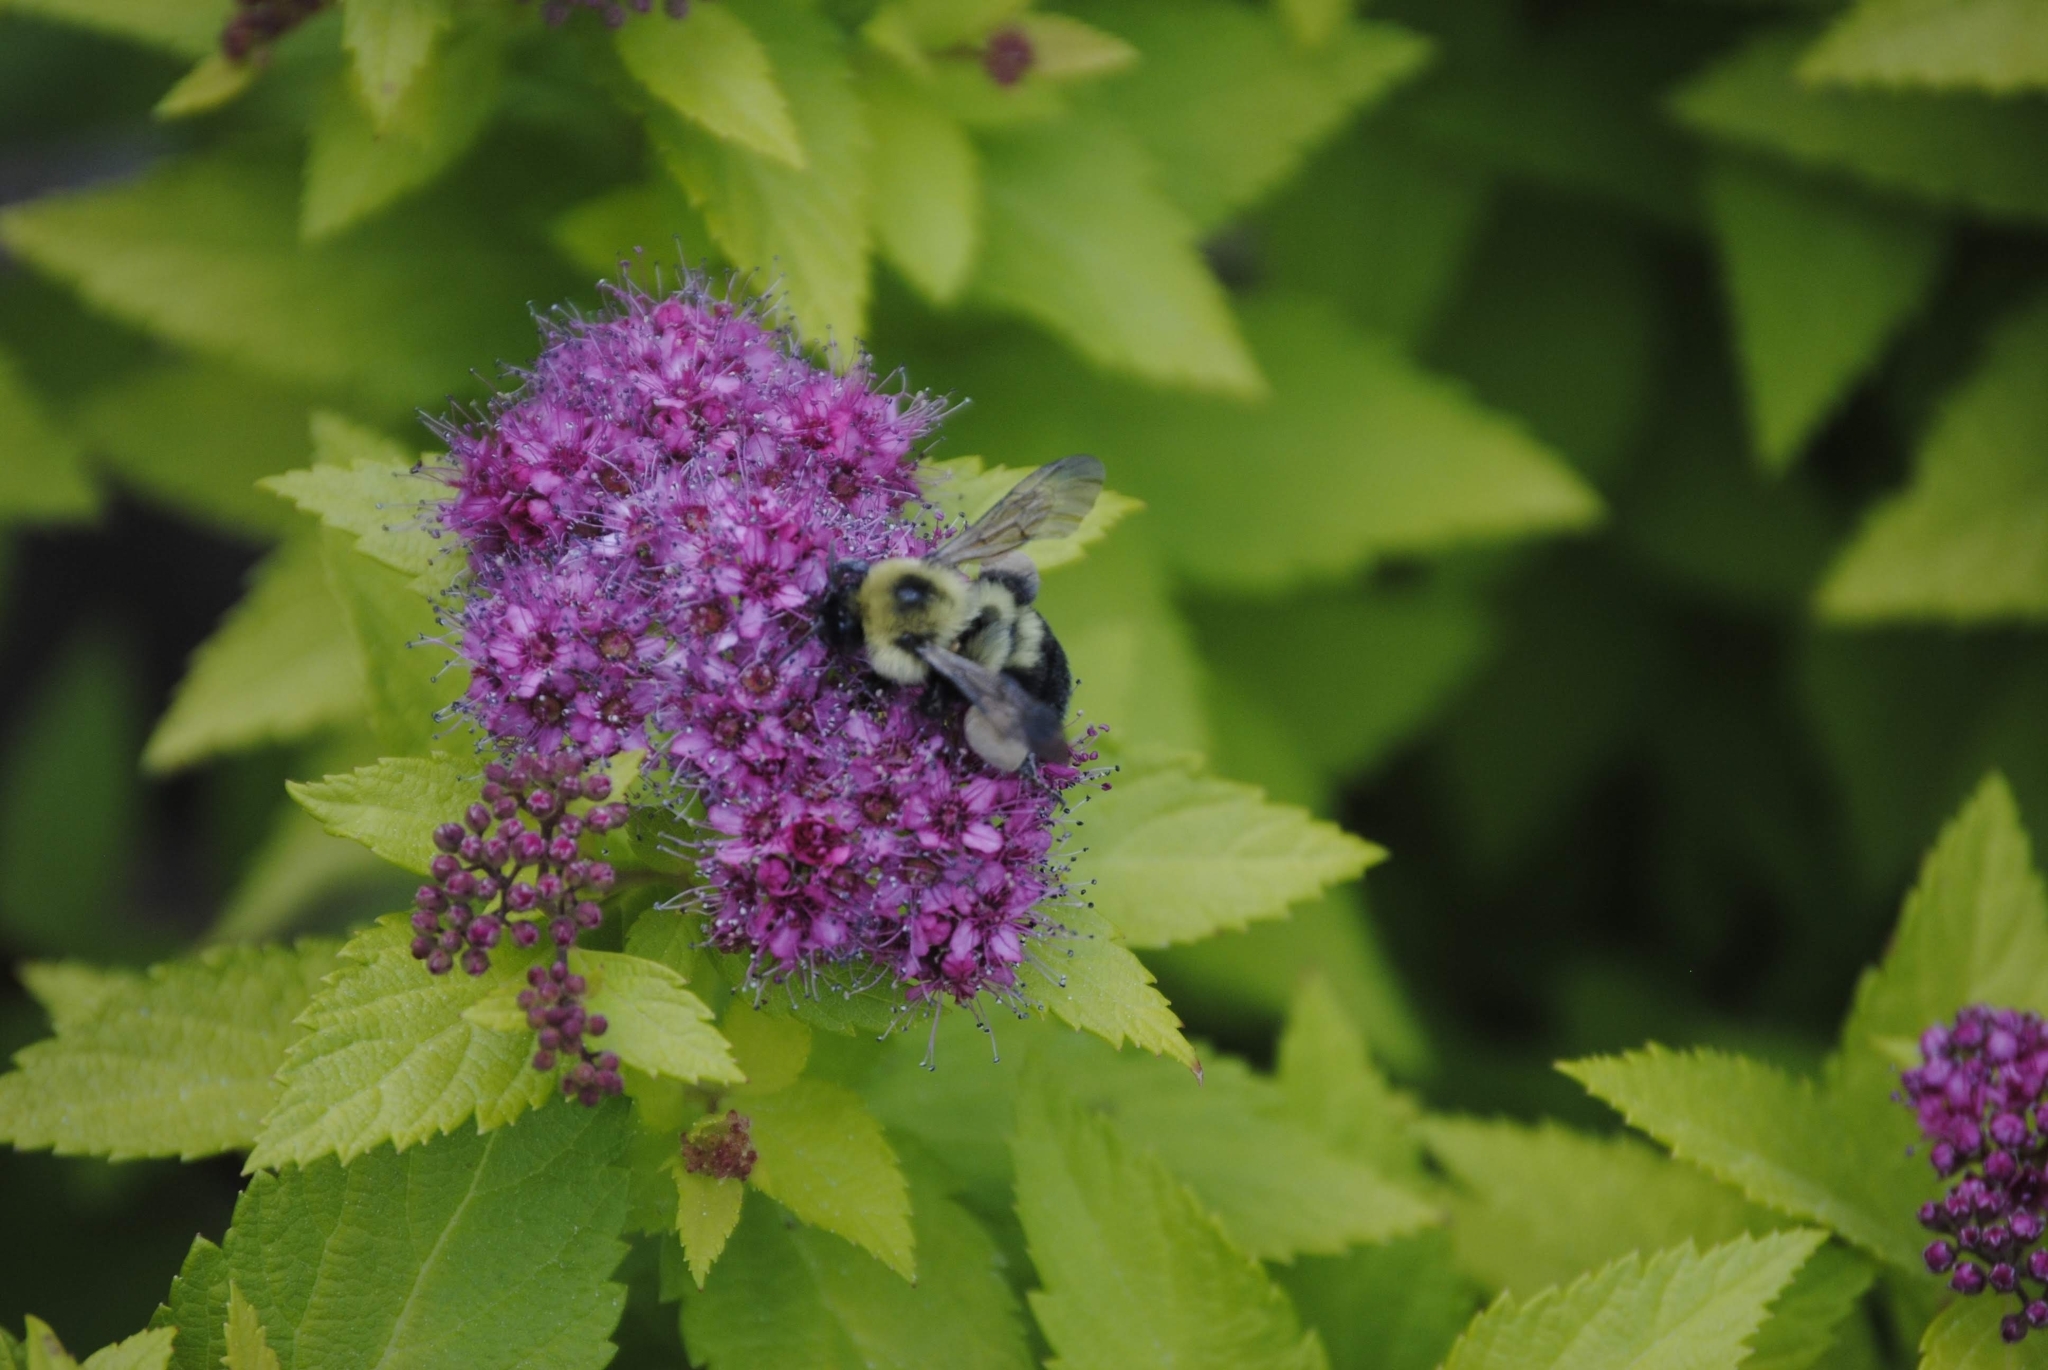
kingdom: Animalia
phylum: Arthropoda
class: Insecta
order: Hymenoptera
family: Apidae
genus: Bombus
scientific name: Bombus bimaculatus
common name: Two-spotted bumble bee
